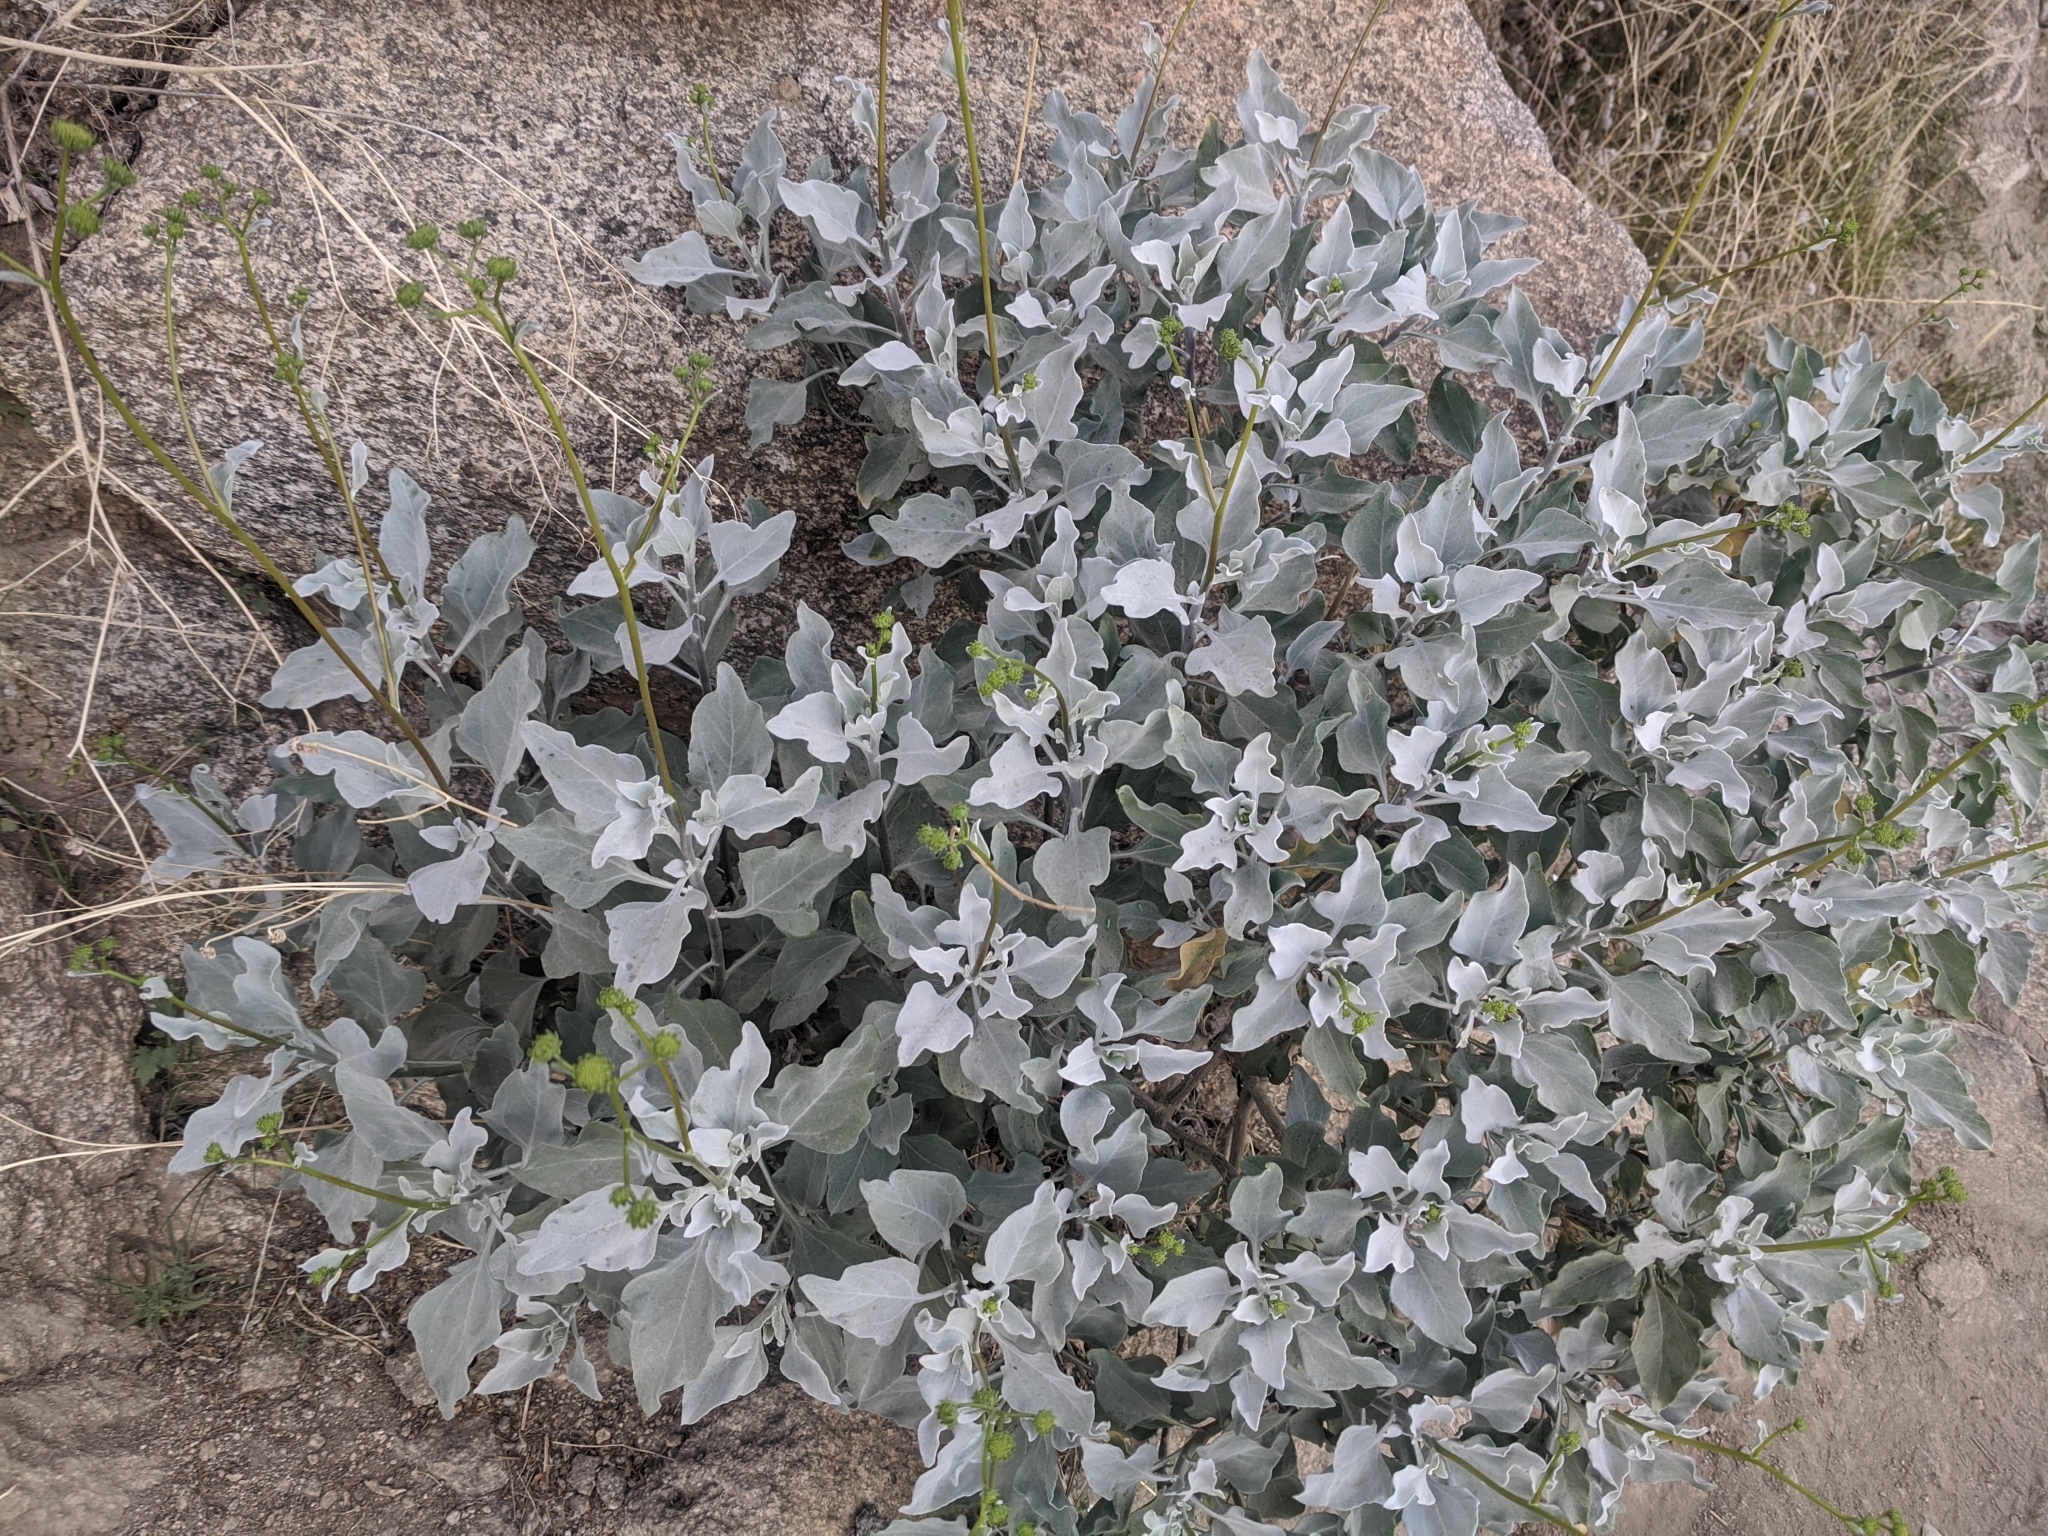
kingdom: Plantae
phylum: Tracheophyta
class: Magnoliopsida
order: Asterales
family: Asteraceae
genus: Encelia
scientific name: Encelia farinosa
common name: Brittlebush
